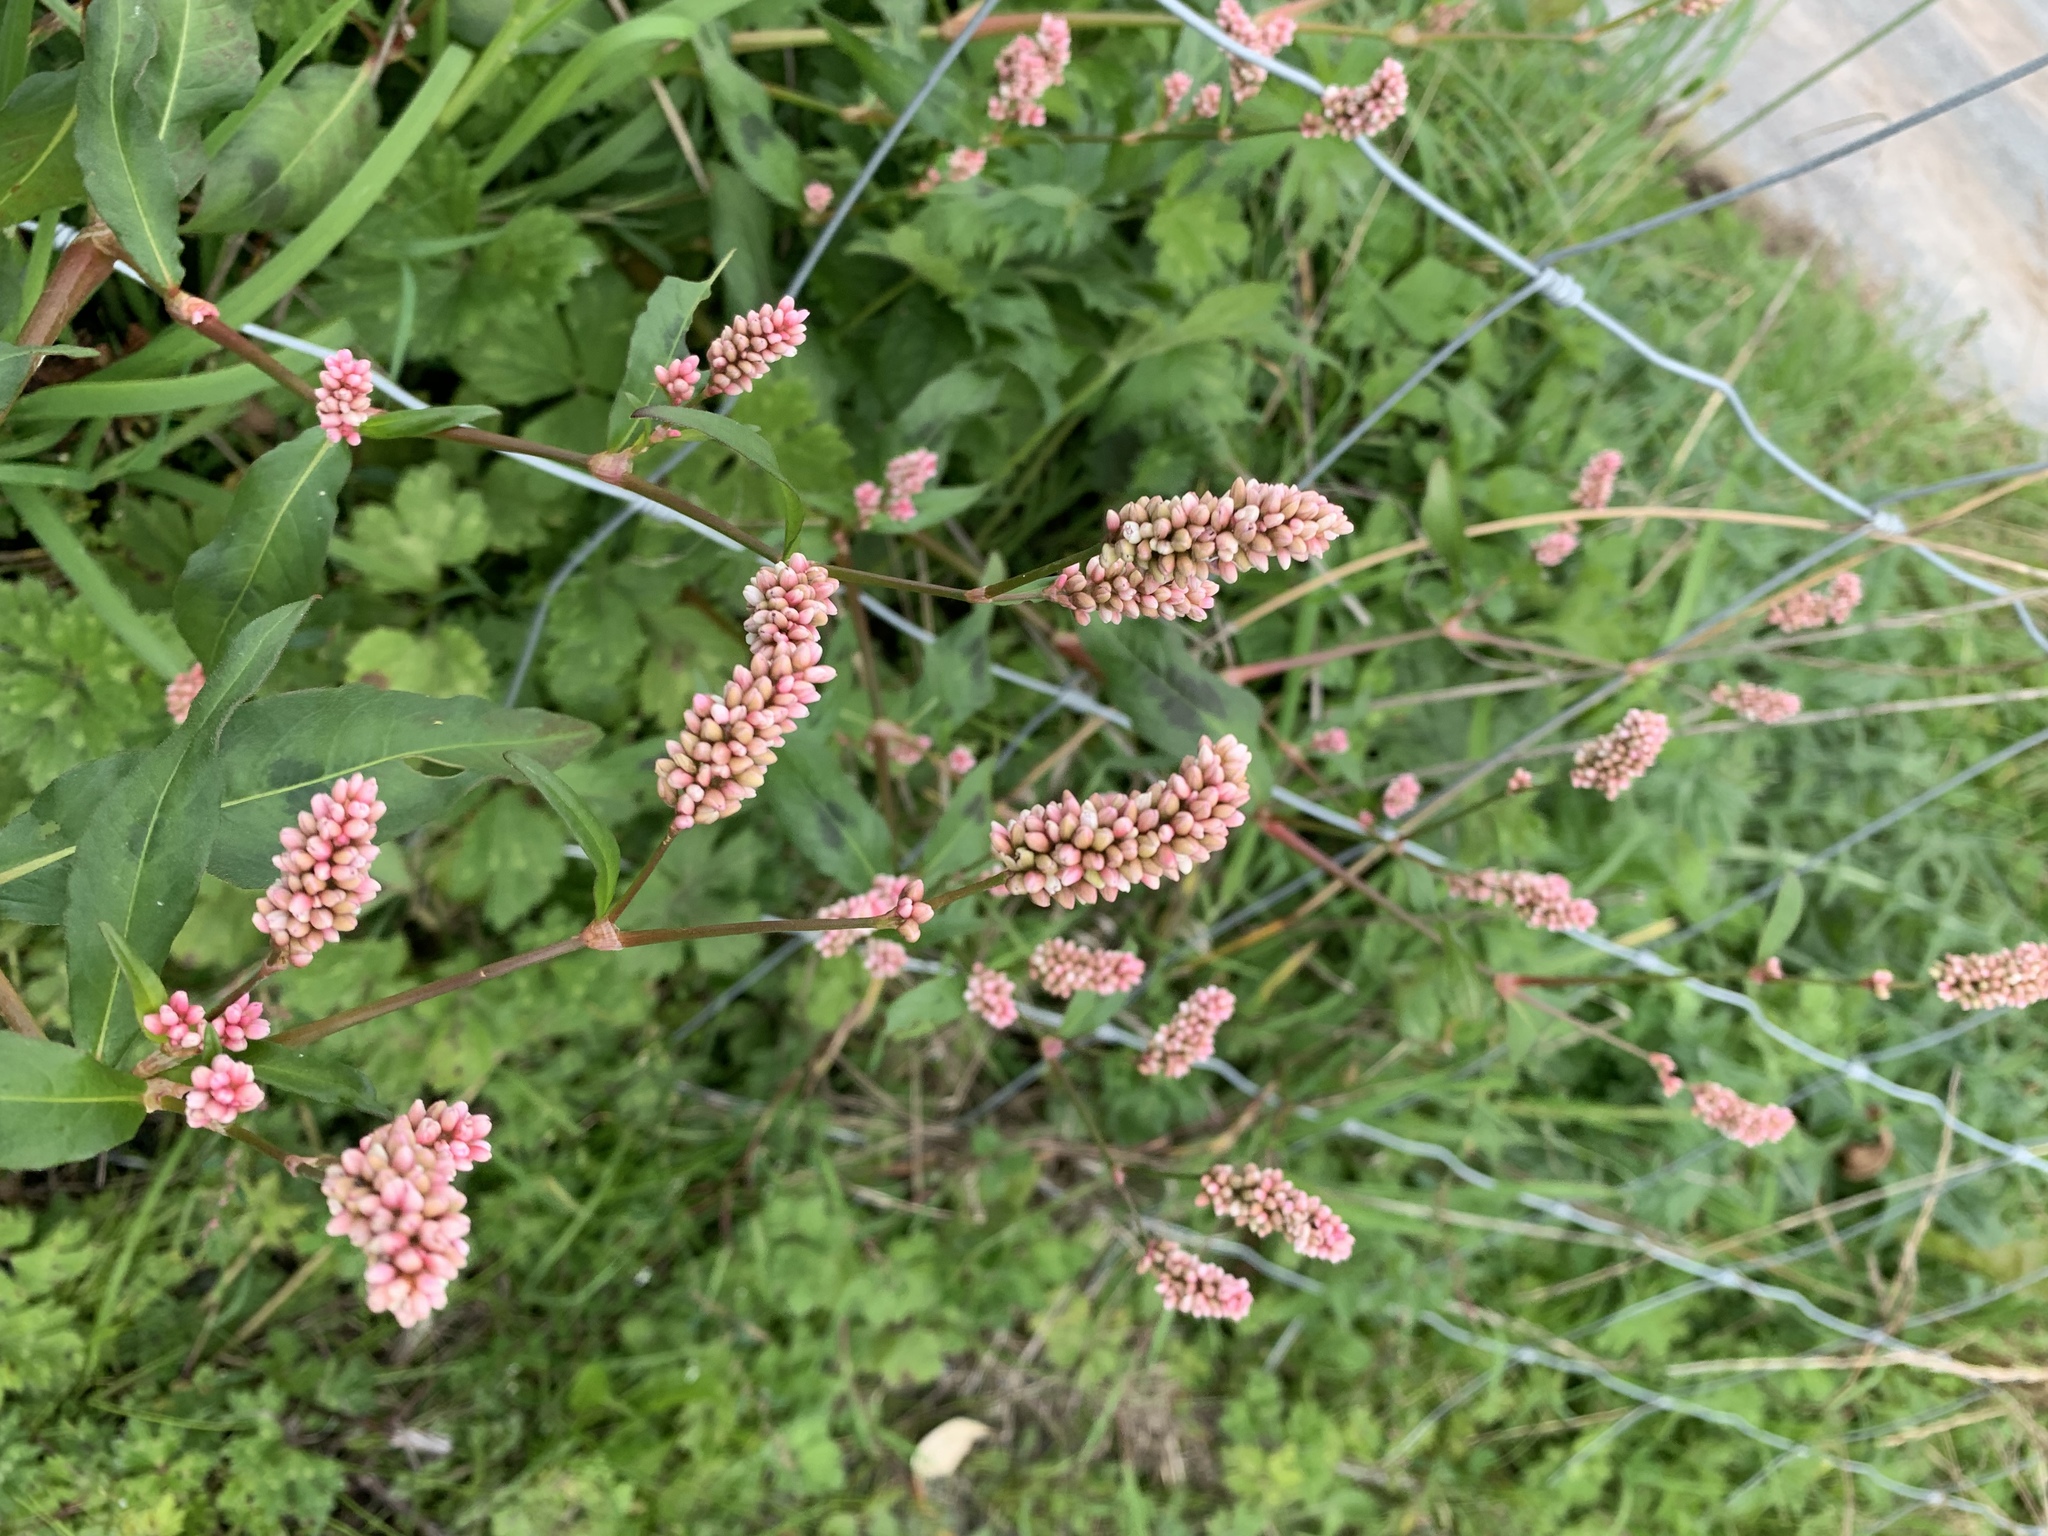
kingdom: Plantae
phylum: Tracheophyta
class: Magnoliopsida
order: Caryophyllales
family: Polygonaceae
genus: Persicaria
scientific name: Persicaria maculosa
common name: Redshank
